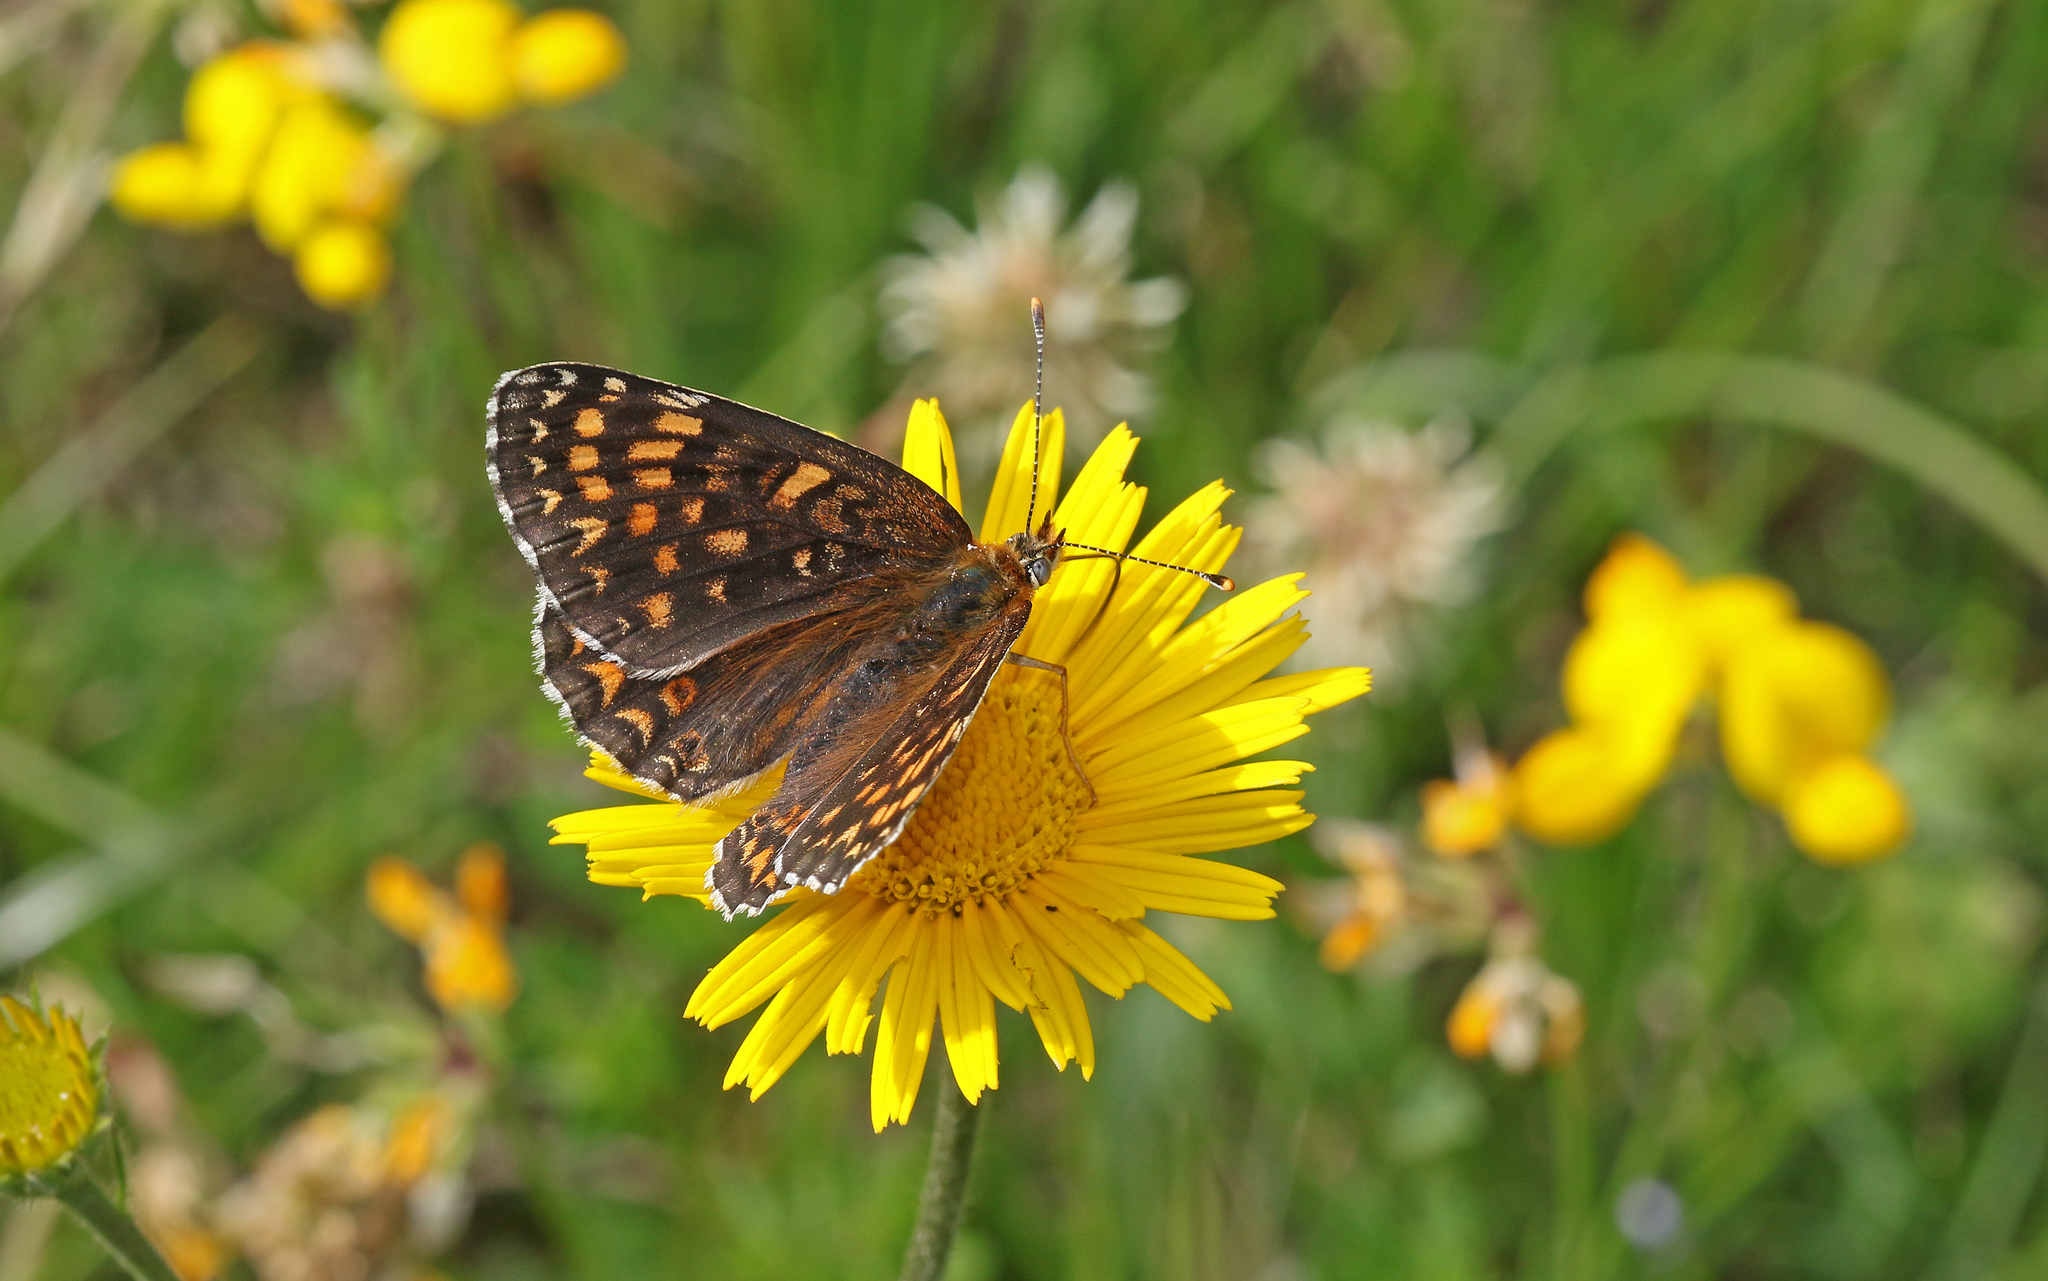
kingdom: Animalia
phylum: Arthropoda
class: Insecta
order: Lepidoptera
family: Nymphalidae
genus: Melitaea
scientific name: Melitaea phoebe
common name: Knapweed fritillary
